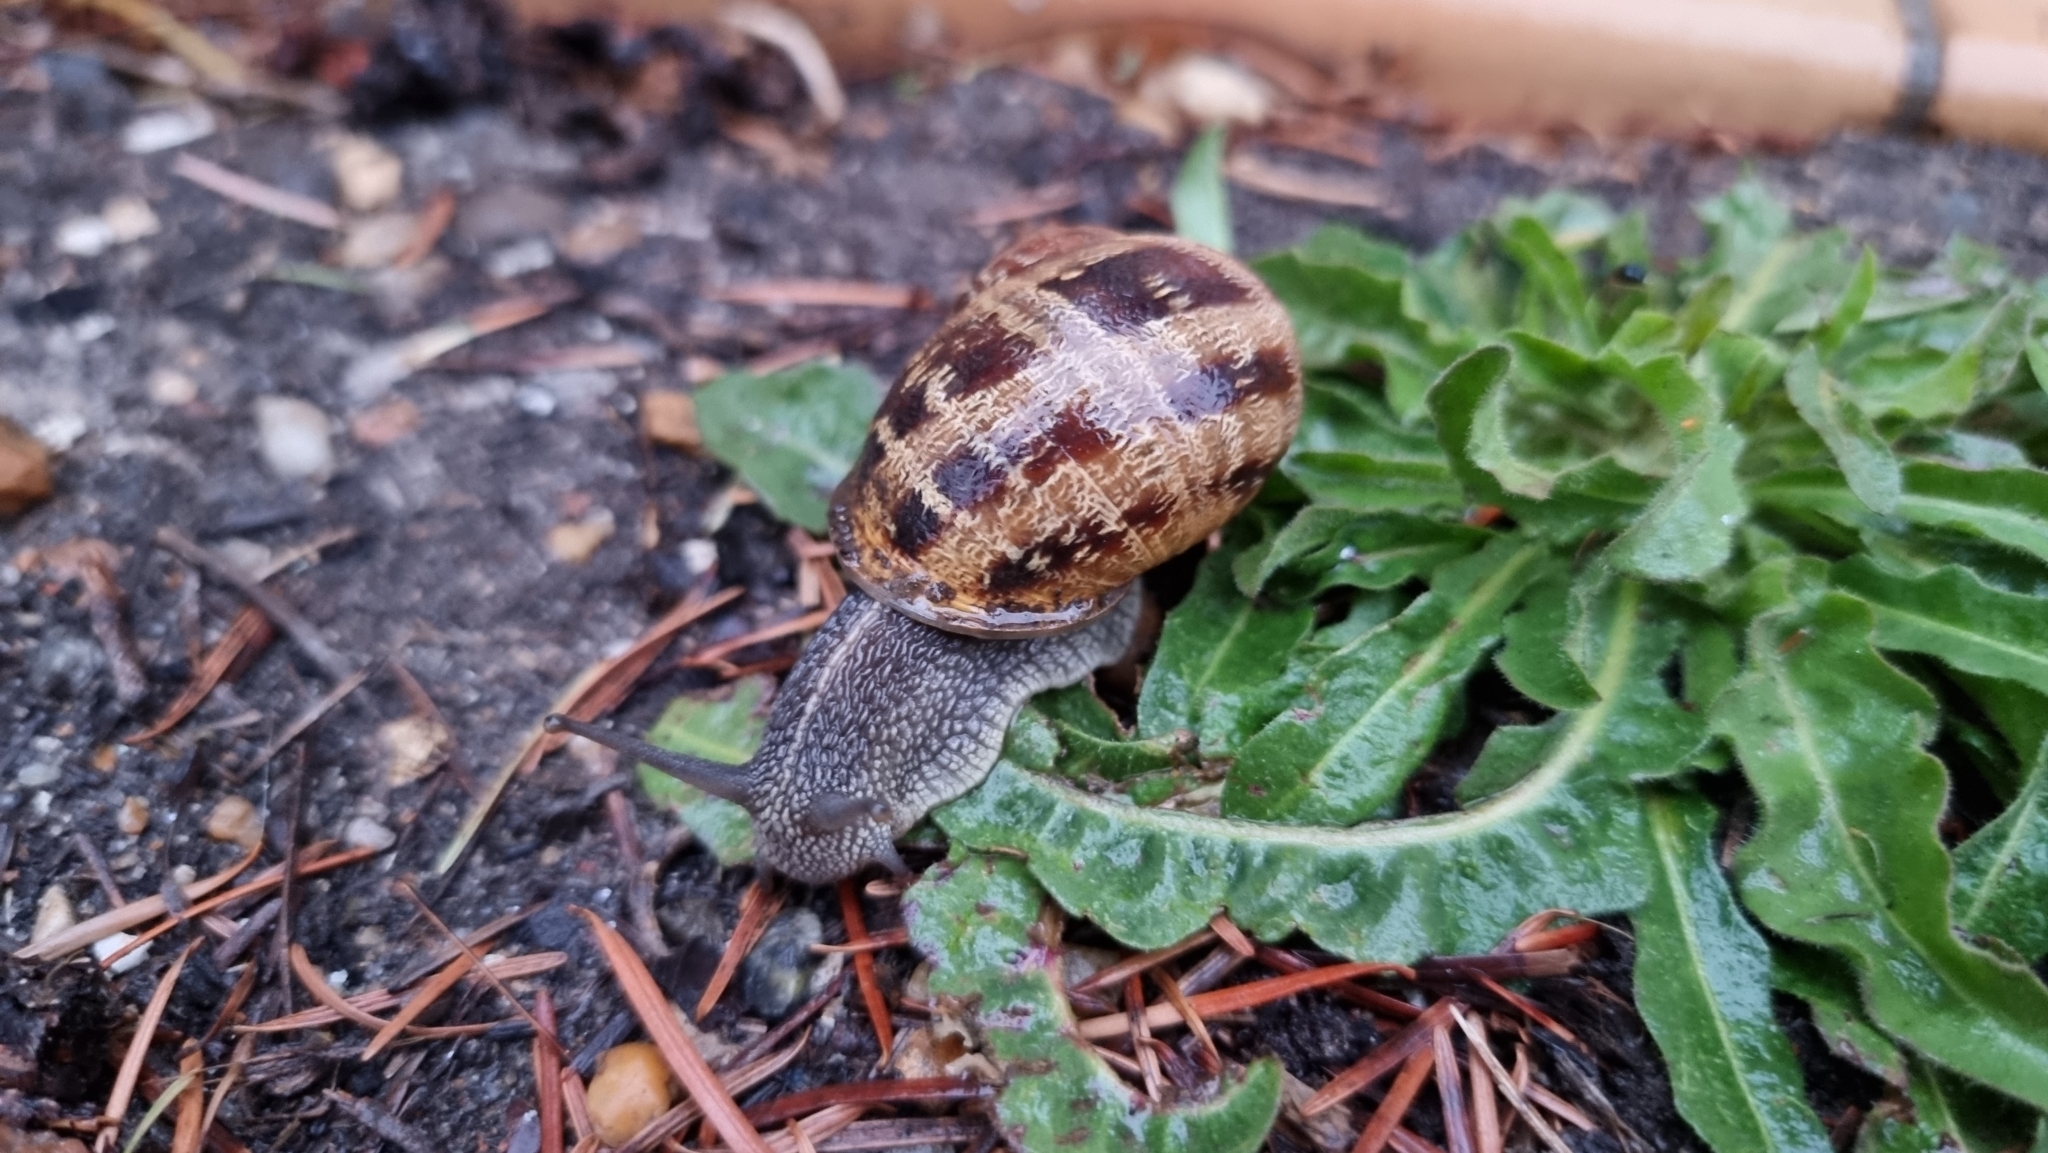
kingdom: Animalia
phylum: Mollusca
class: Gastropoda
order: Stylommatophora
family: Helicidae
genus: Cornu
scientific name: Cornu aspersum
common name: Brown garden snail
